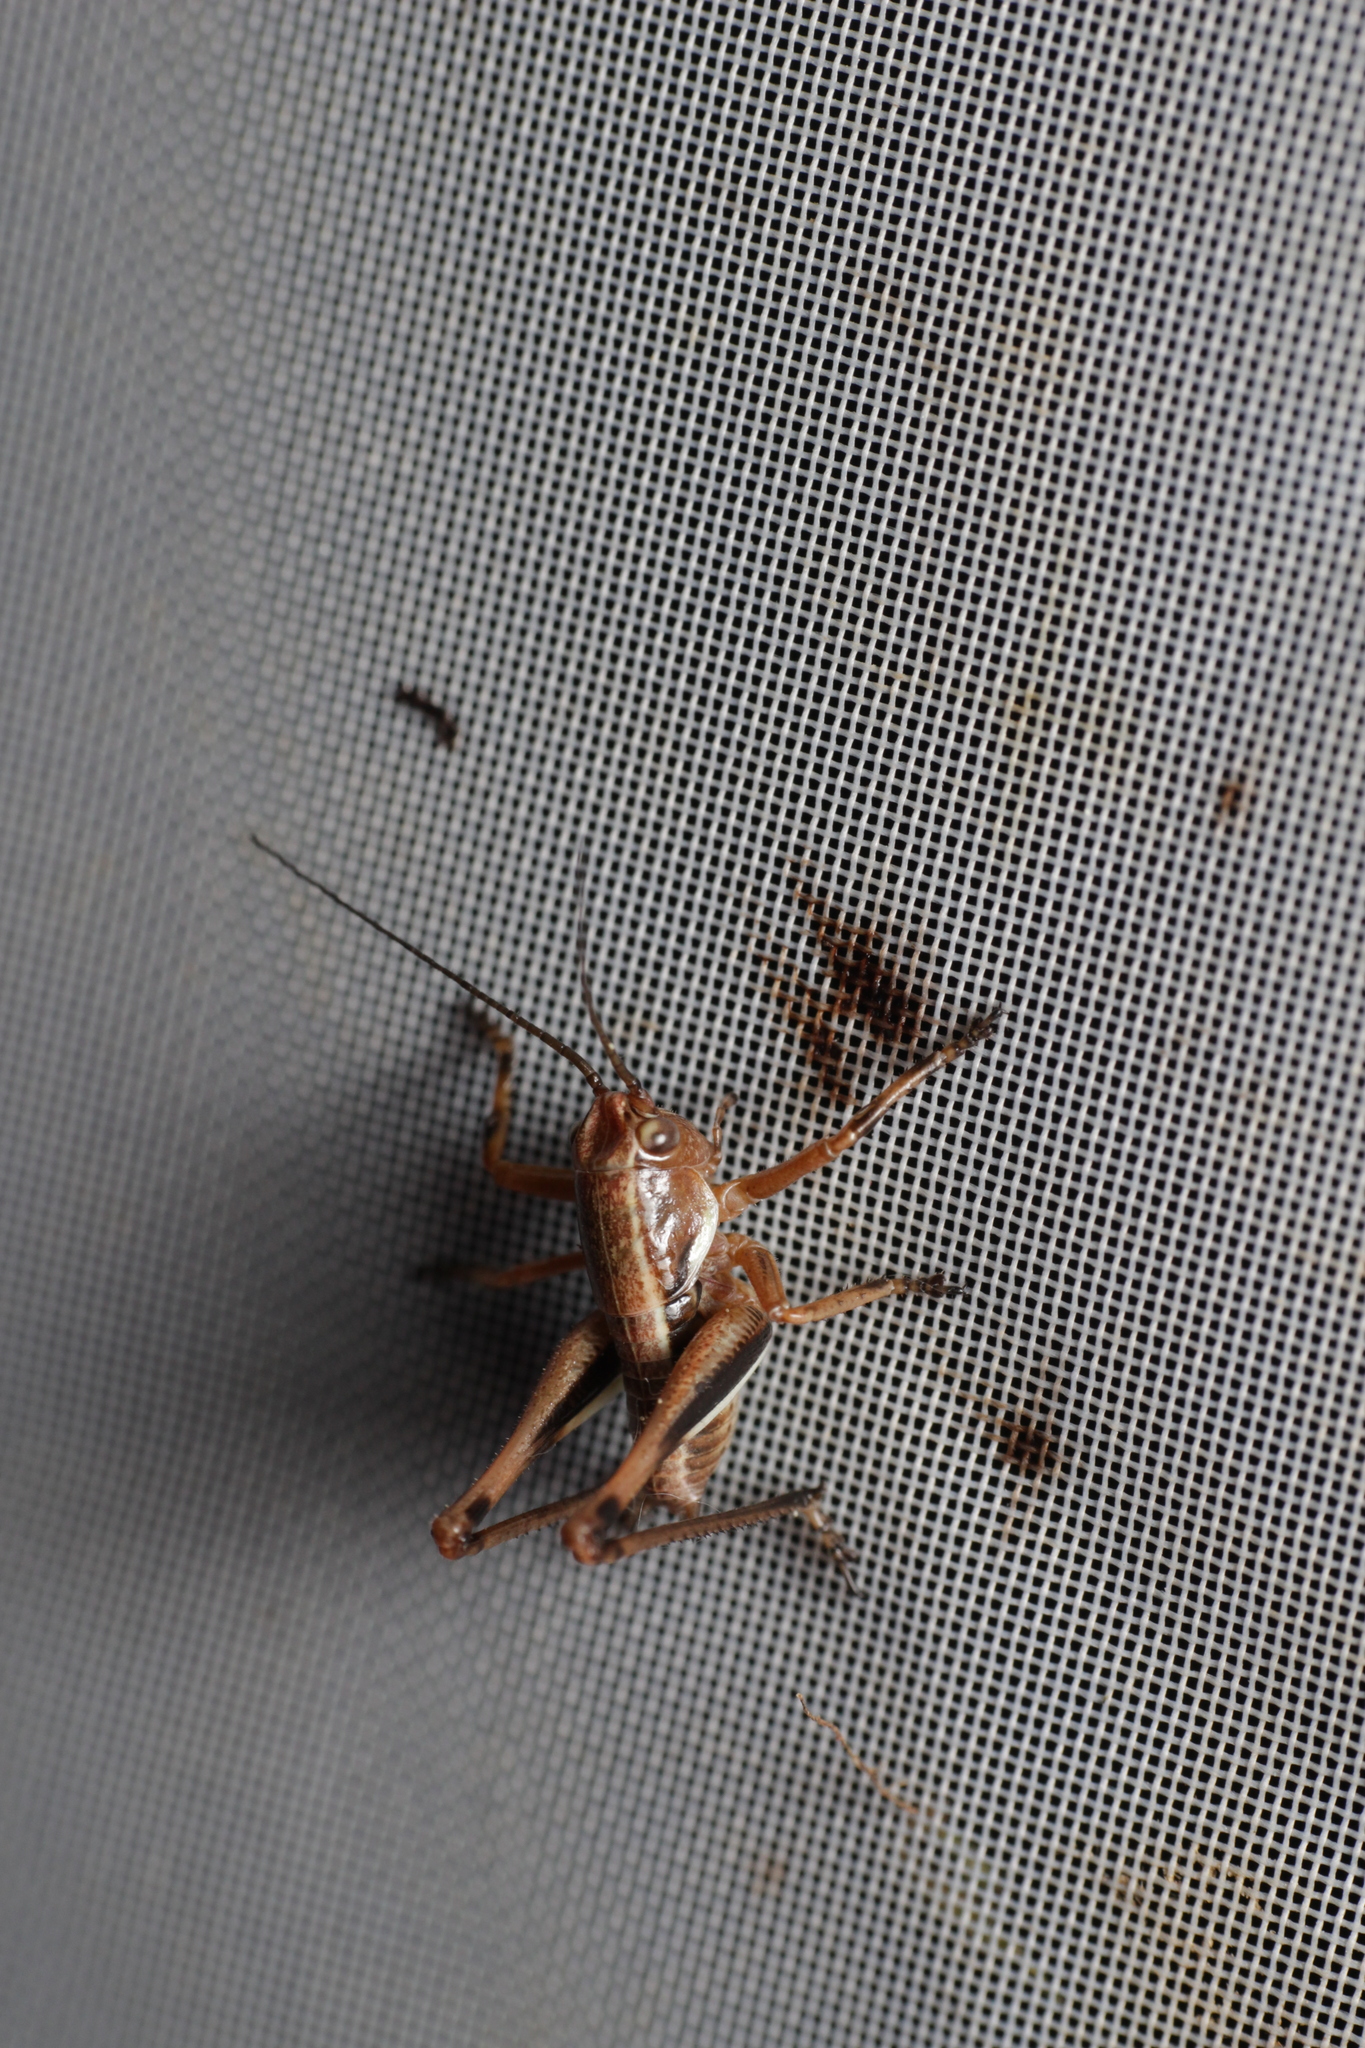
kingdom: Animalia
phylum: Arthropoda
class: Insecta
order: Orthoptera
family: Tettigoniidae
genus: Pholidoptera
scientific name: Pholidoptera aptera
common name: Alpine dark bush-cricket
